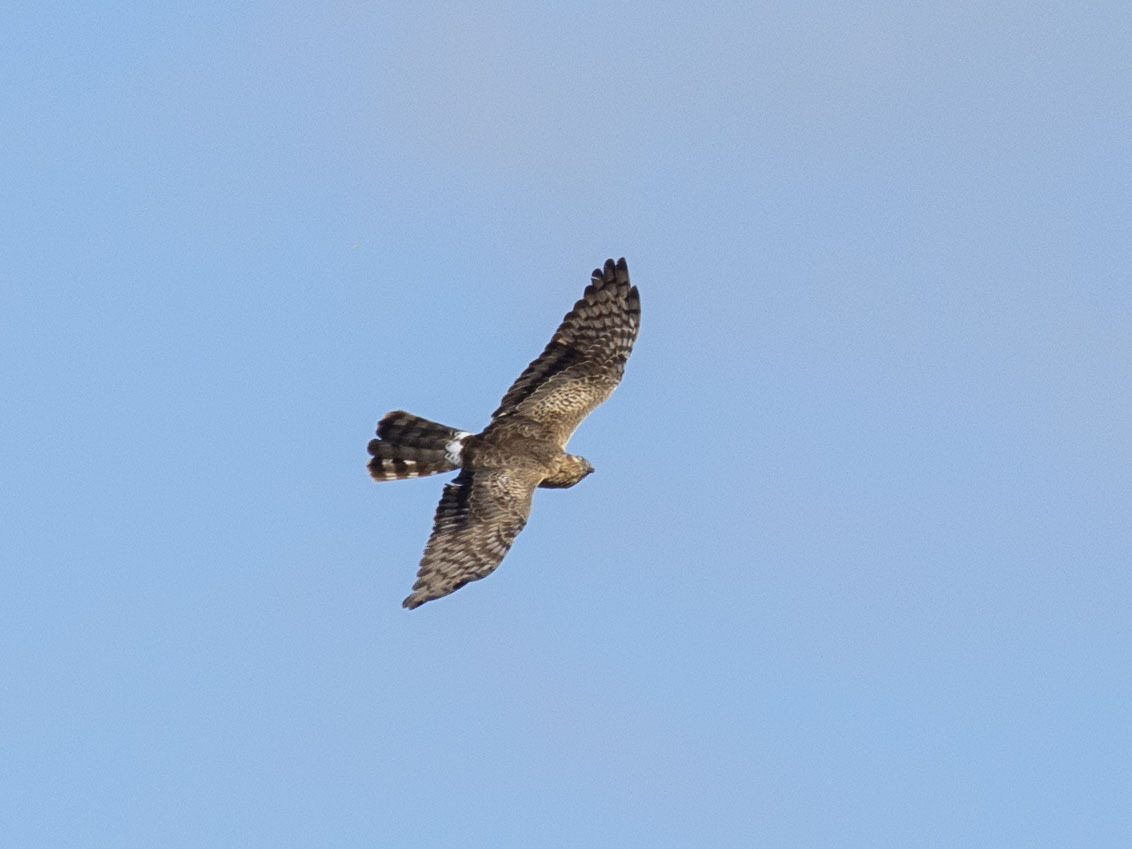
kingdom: Animalia
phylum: Chordata
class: Aves
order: Accipitriformes
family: Accipitridae
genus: Circus
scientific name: Circus pygargus
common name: Montagu's harrier
